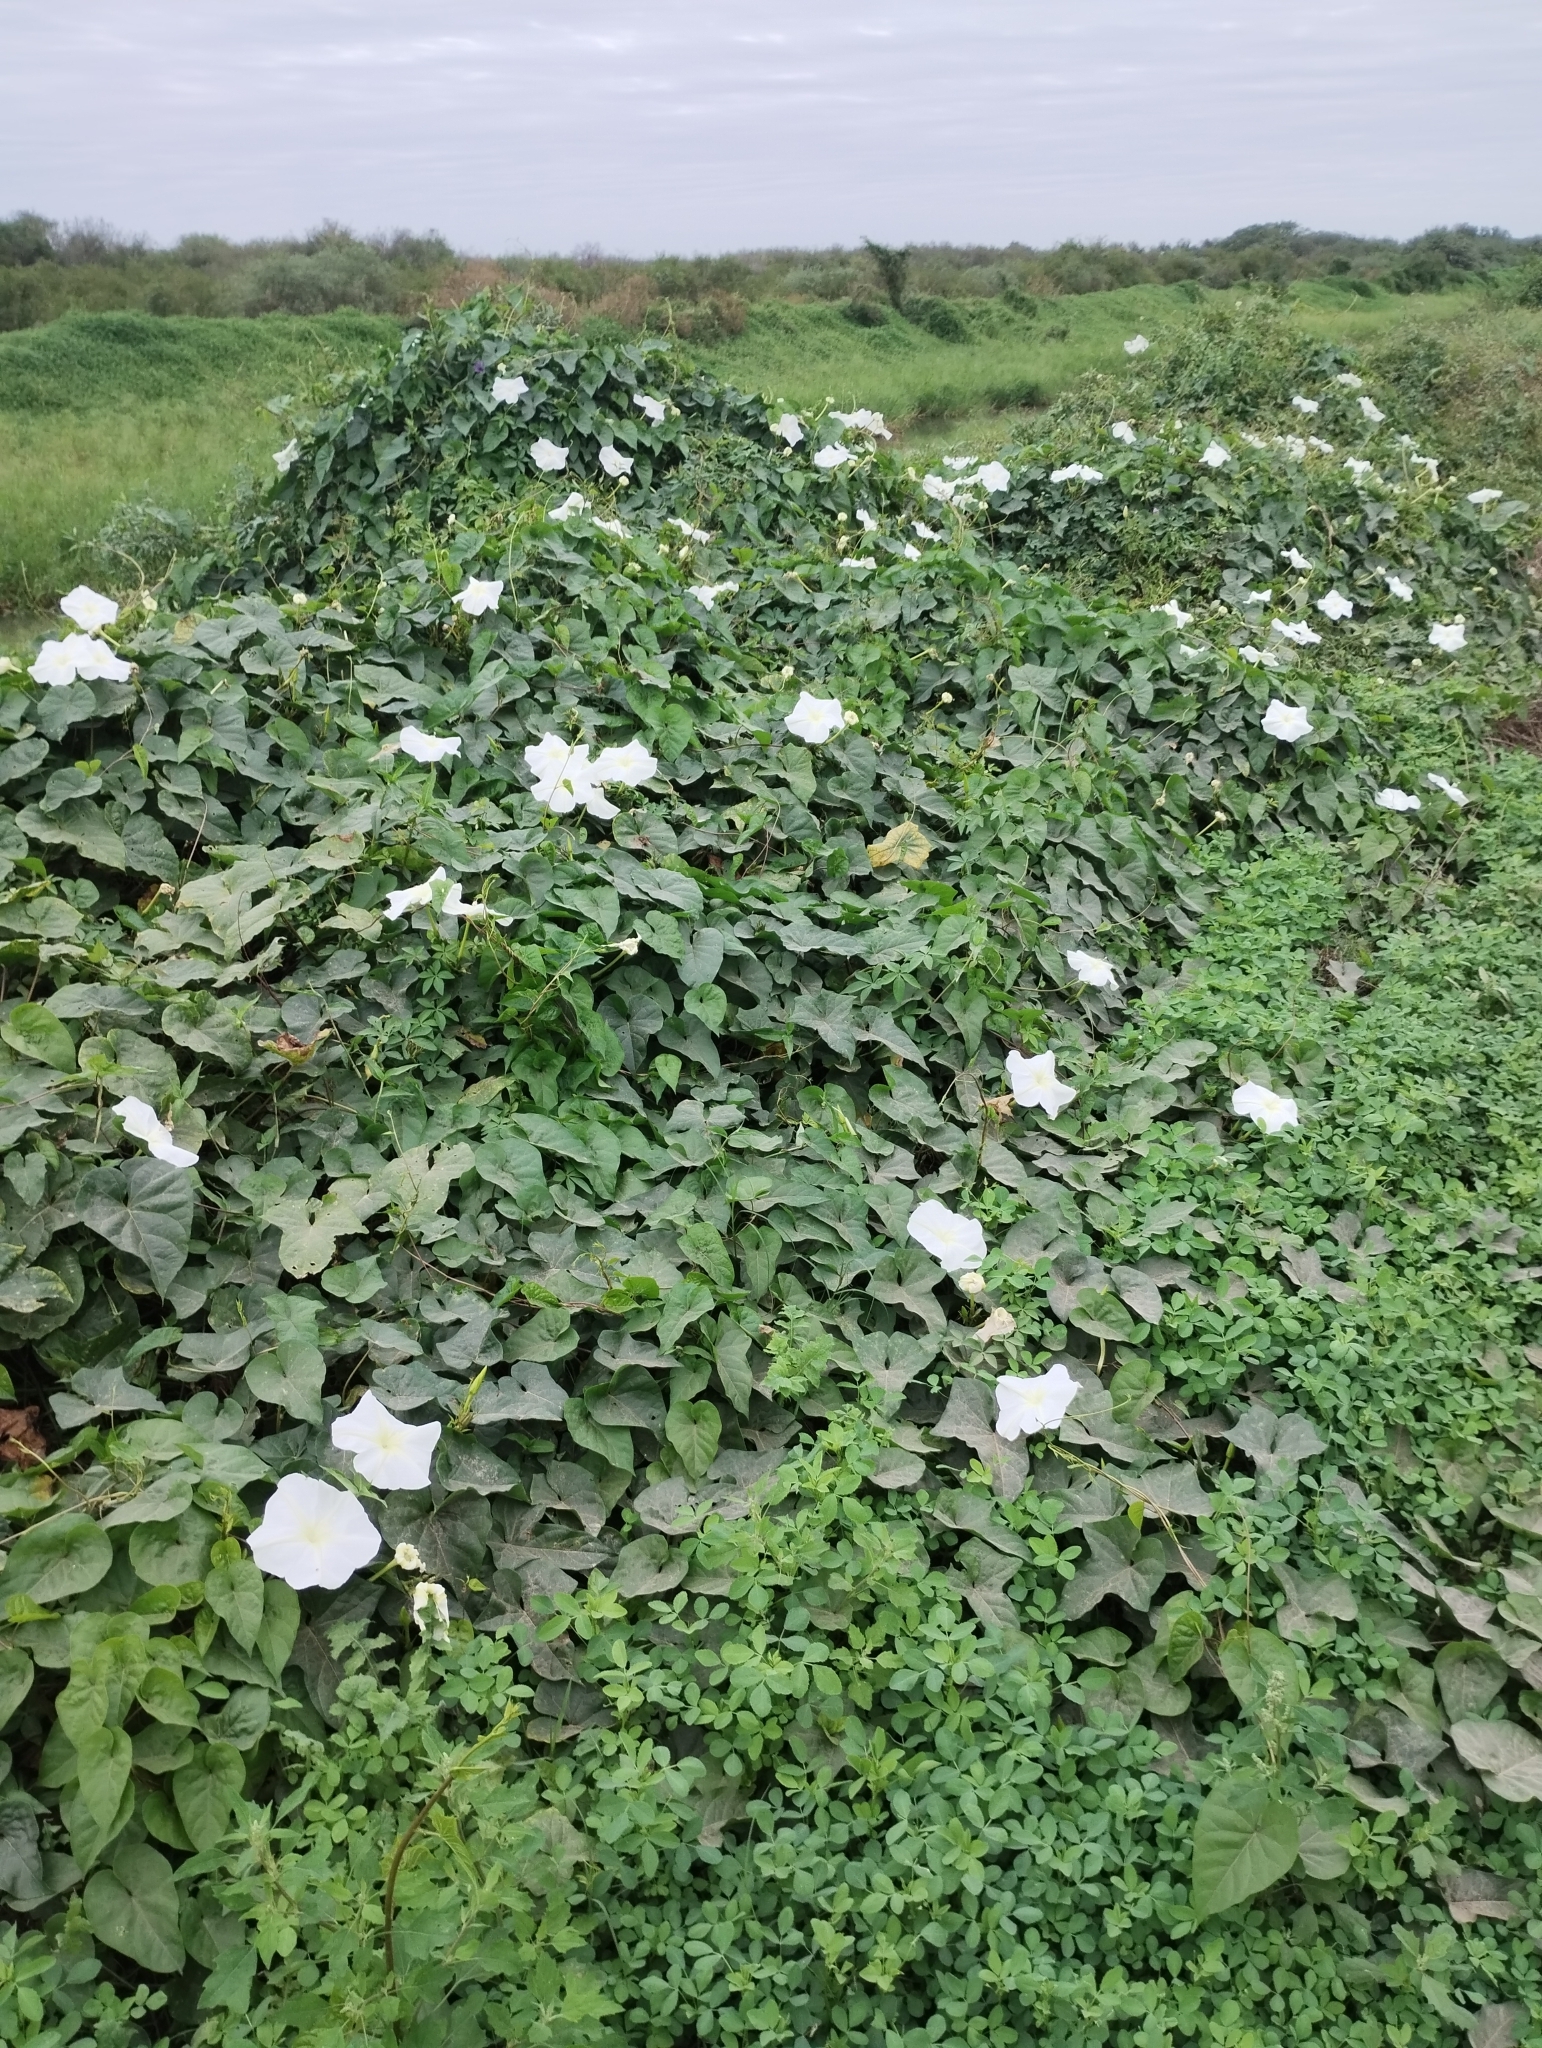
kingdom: Plantae
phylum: Tracheophyta
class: Magnoliopsida
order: Solanales
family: Convolvulaceae
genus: Ipomoea
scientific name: Ipomoea alba
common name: Moonflower
